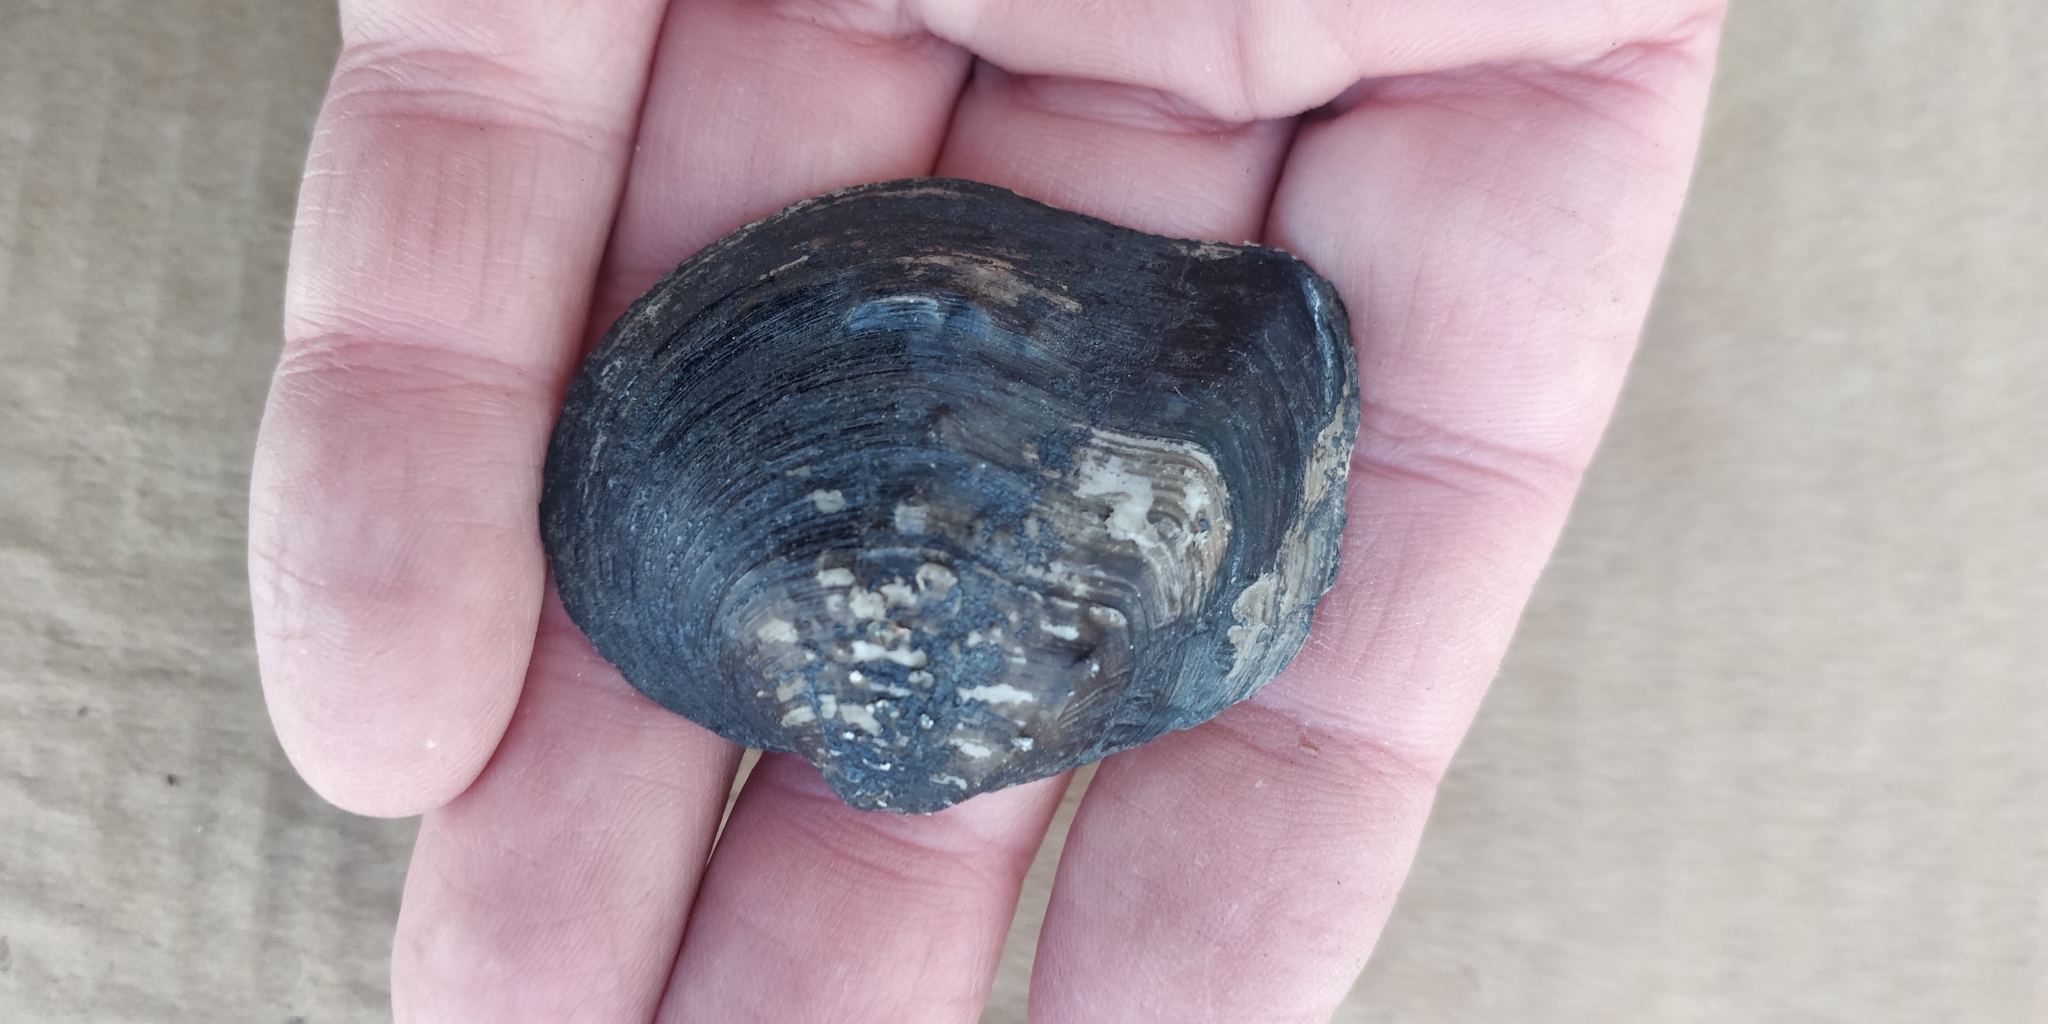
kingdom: Animalia
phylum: Mollusca
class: Bivalvia
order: Unionida
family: Unionidae
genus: Quadrula
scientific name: Quadrula quadrula
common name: Mapleleaf
